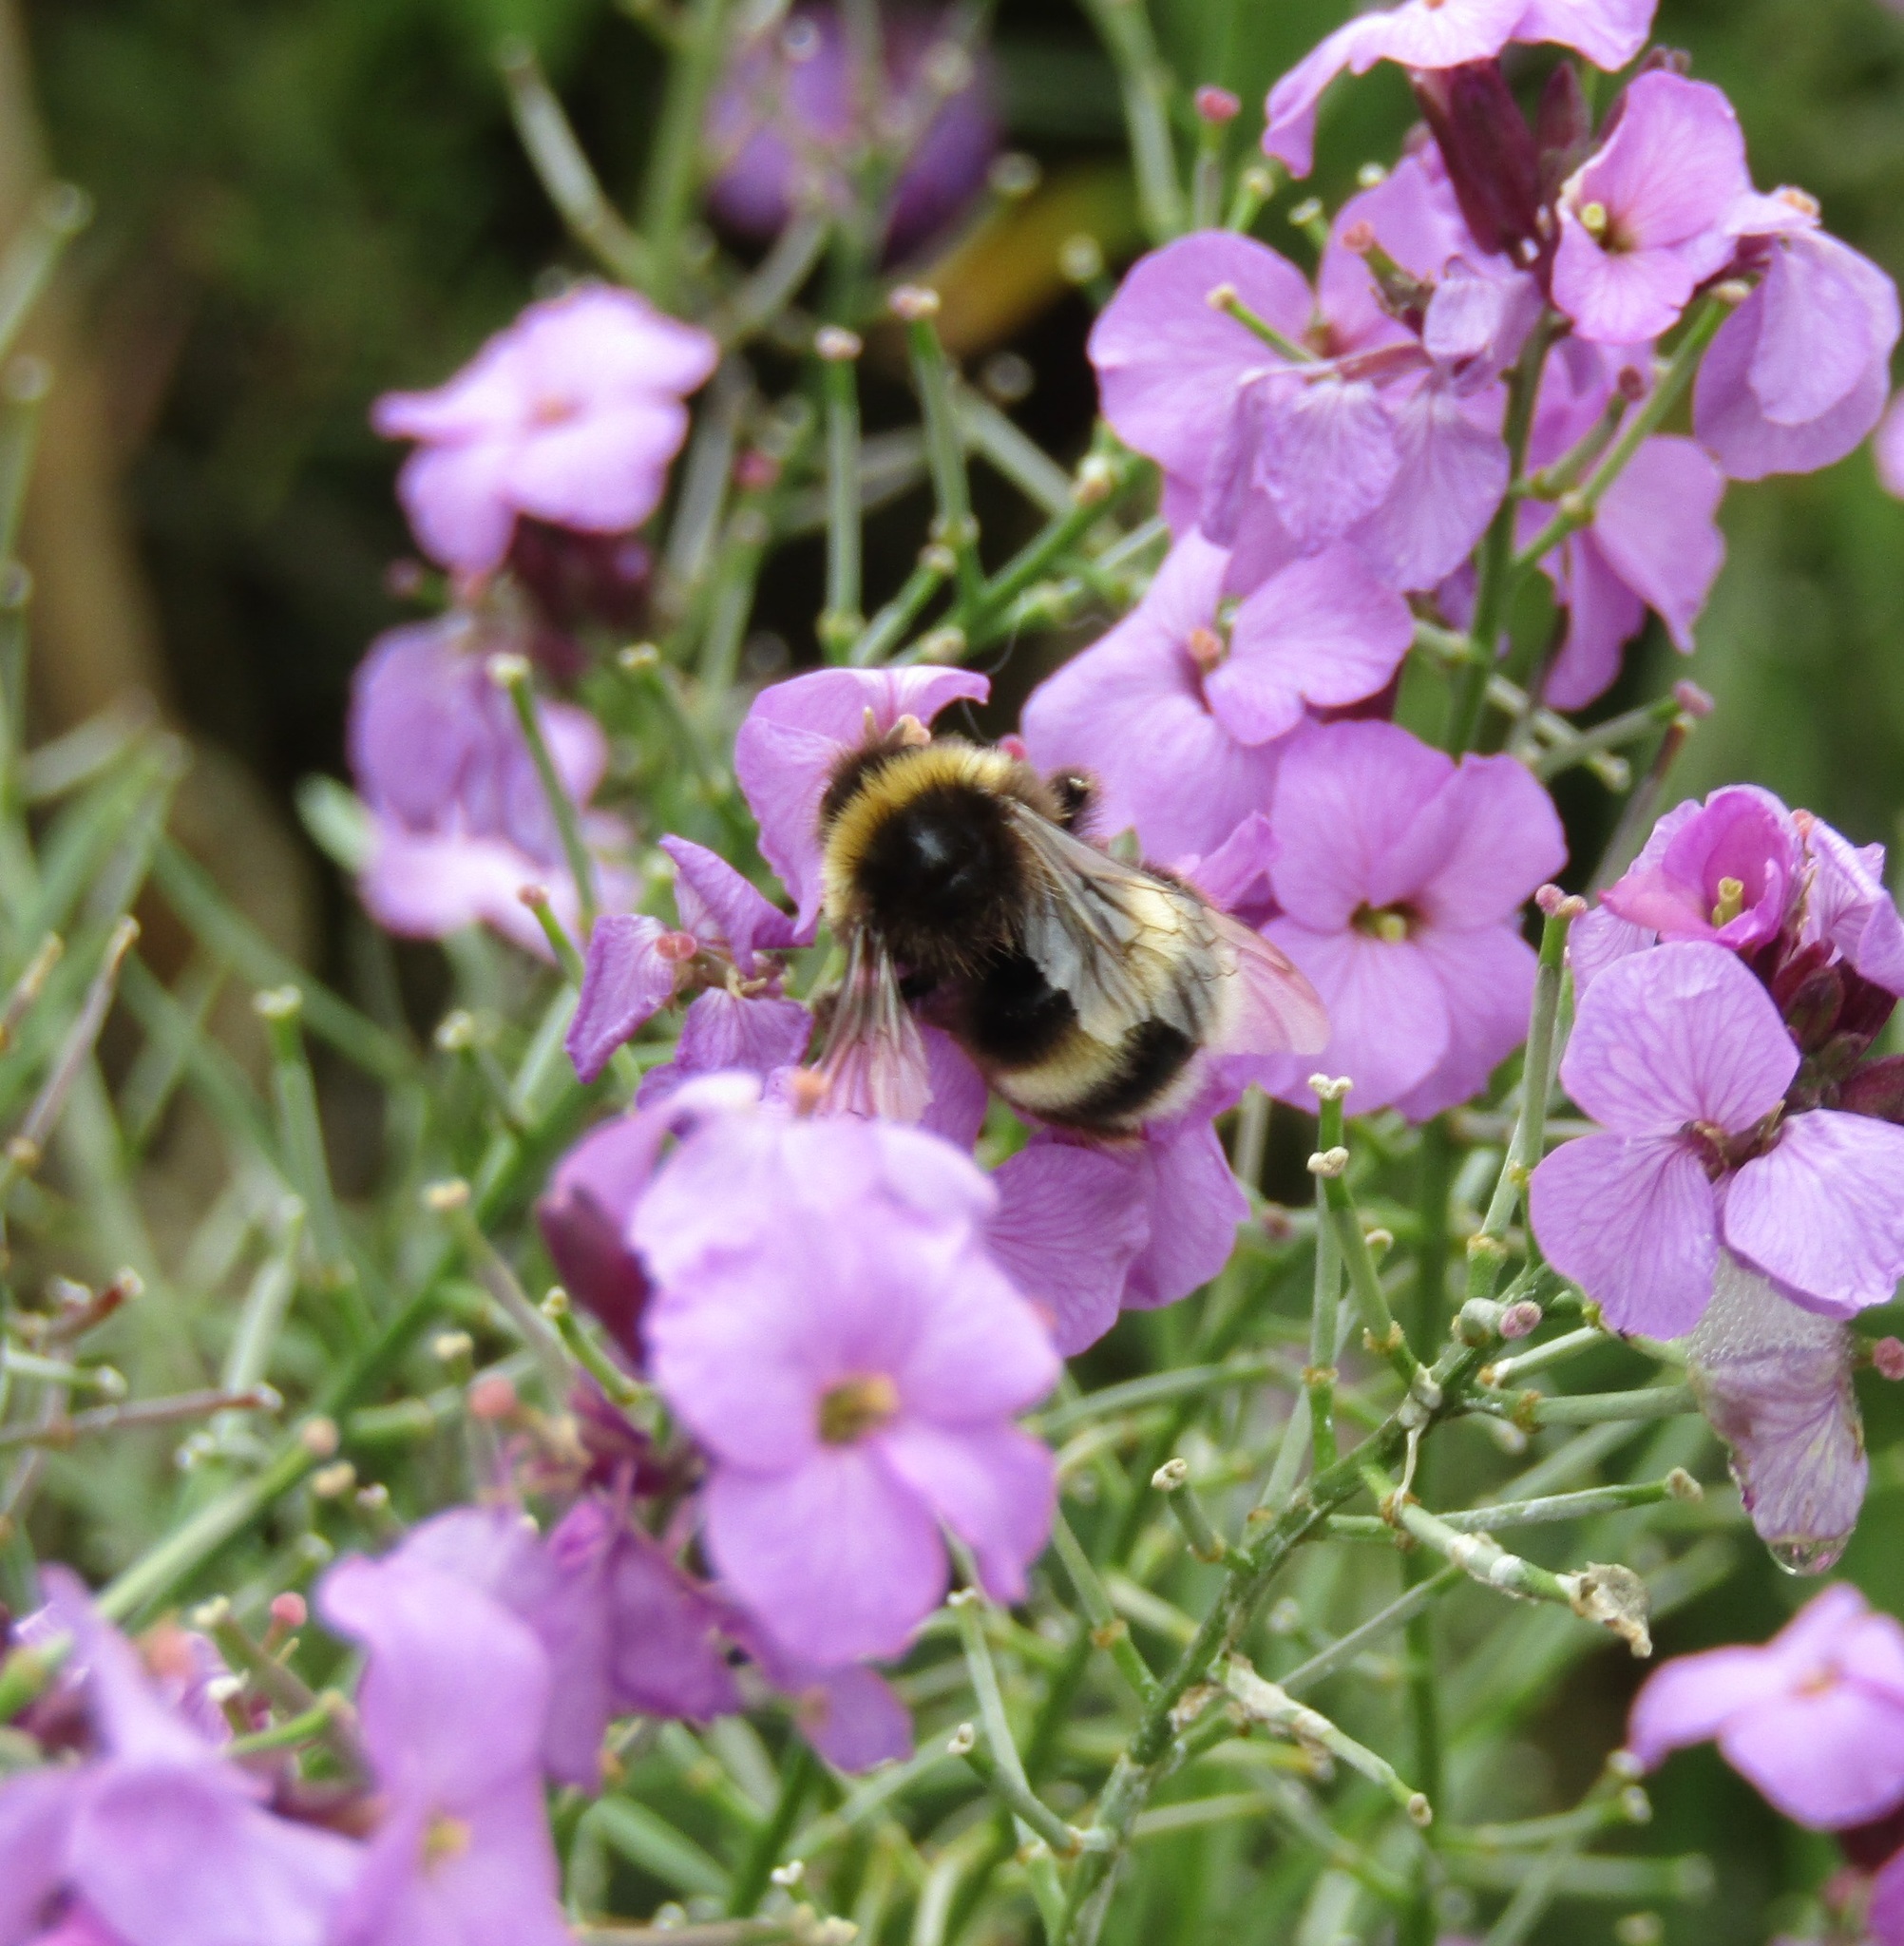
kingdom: Animalia
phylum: Arthropoda
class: Insecta
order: Hymenoptera
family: Apidae
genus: Bombus
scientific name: Bombus terrestris
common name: Buff-tailed bumblebee
